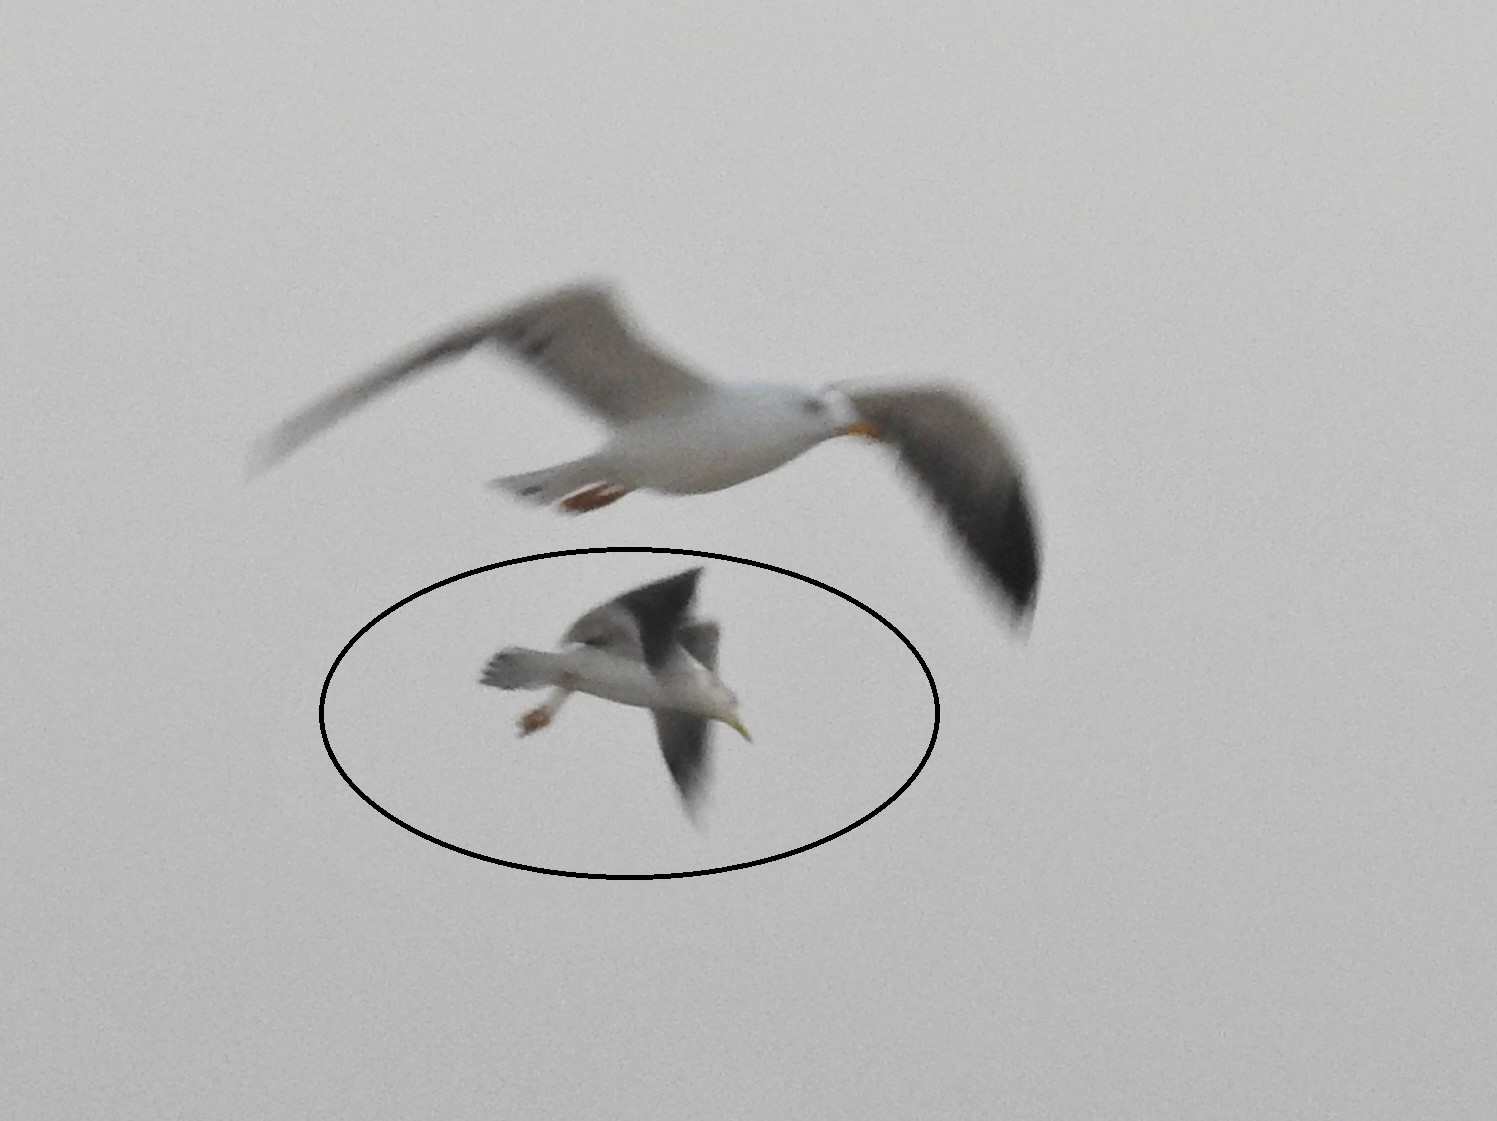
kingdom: Animalia
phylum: Chordata
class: Aves
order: Charadriiformes
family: Laridae
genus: Larus
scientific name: Larus fuscus
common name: Lesser black-backed gull
